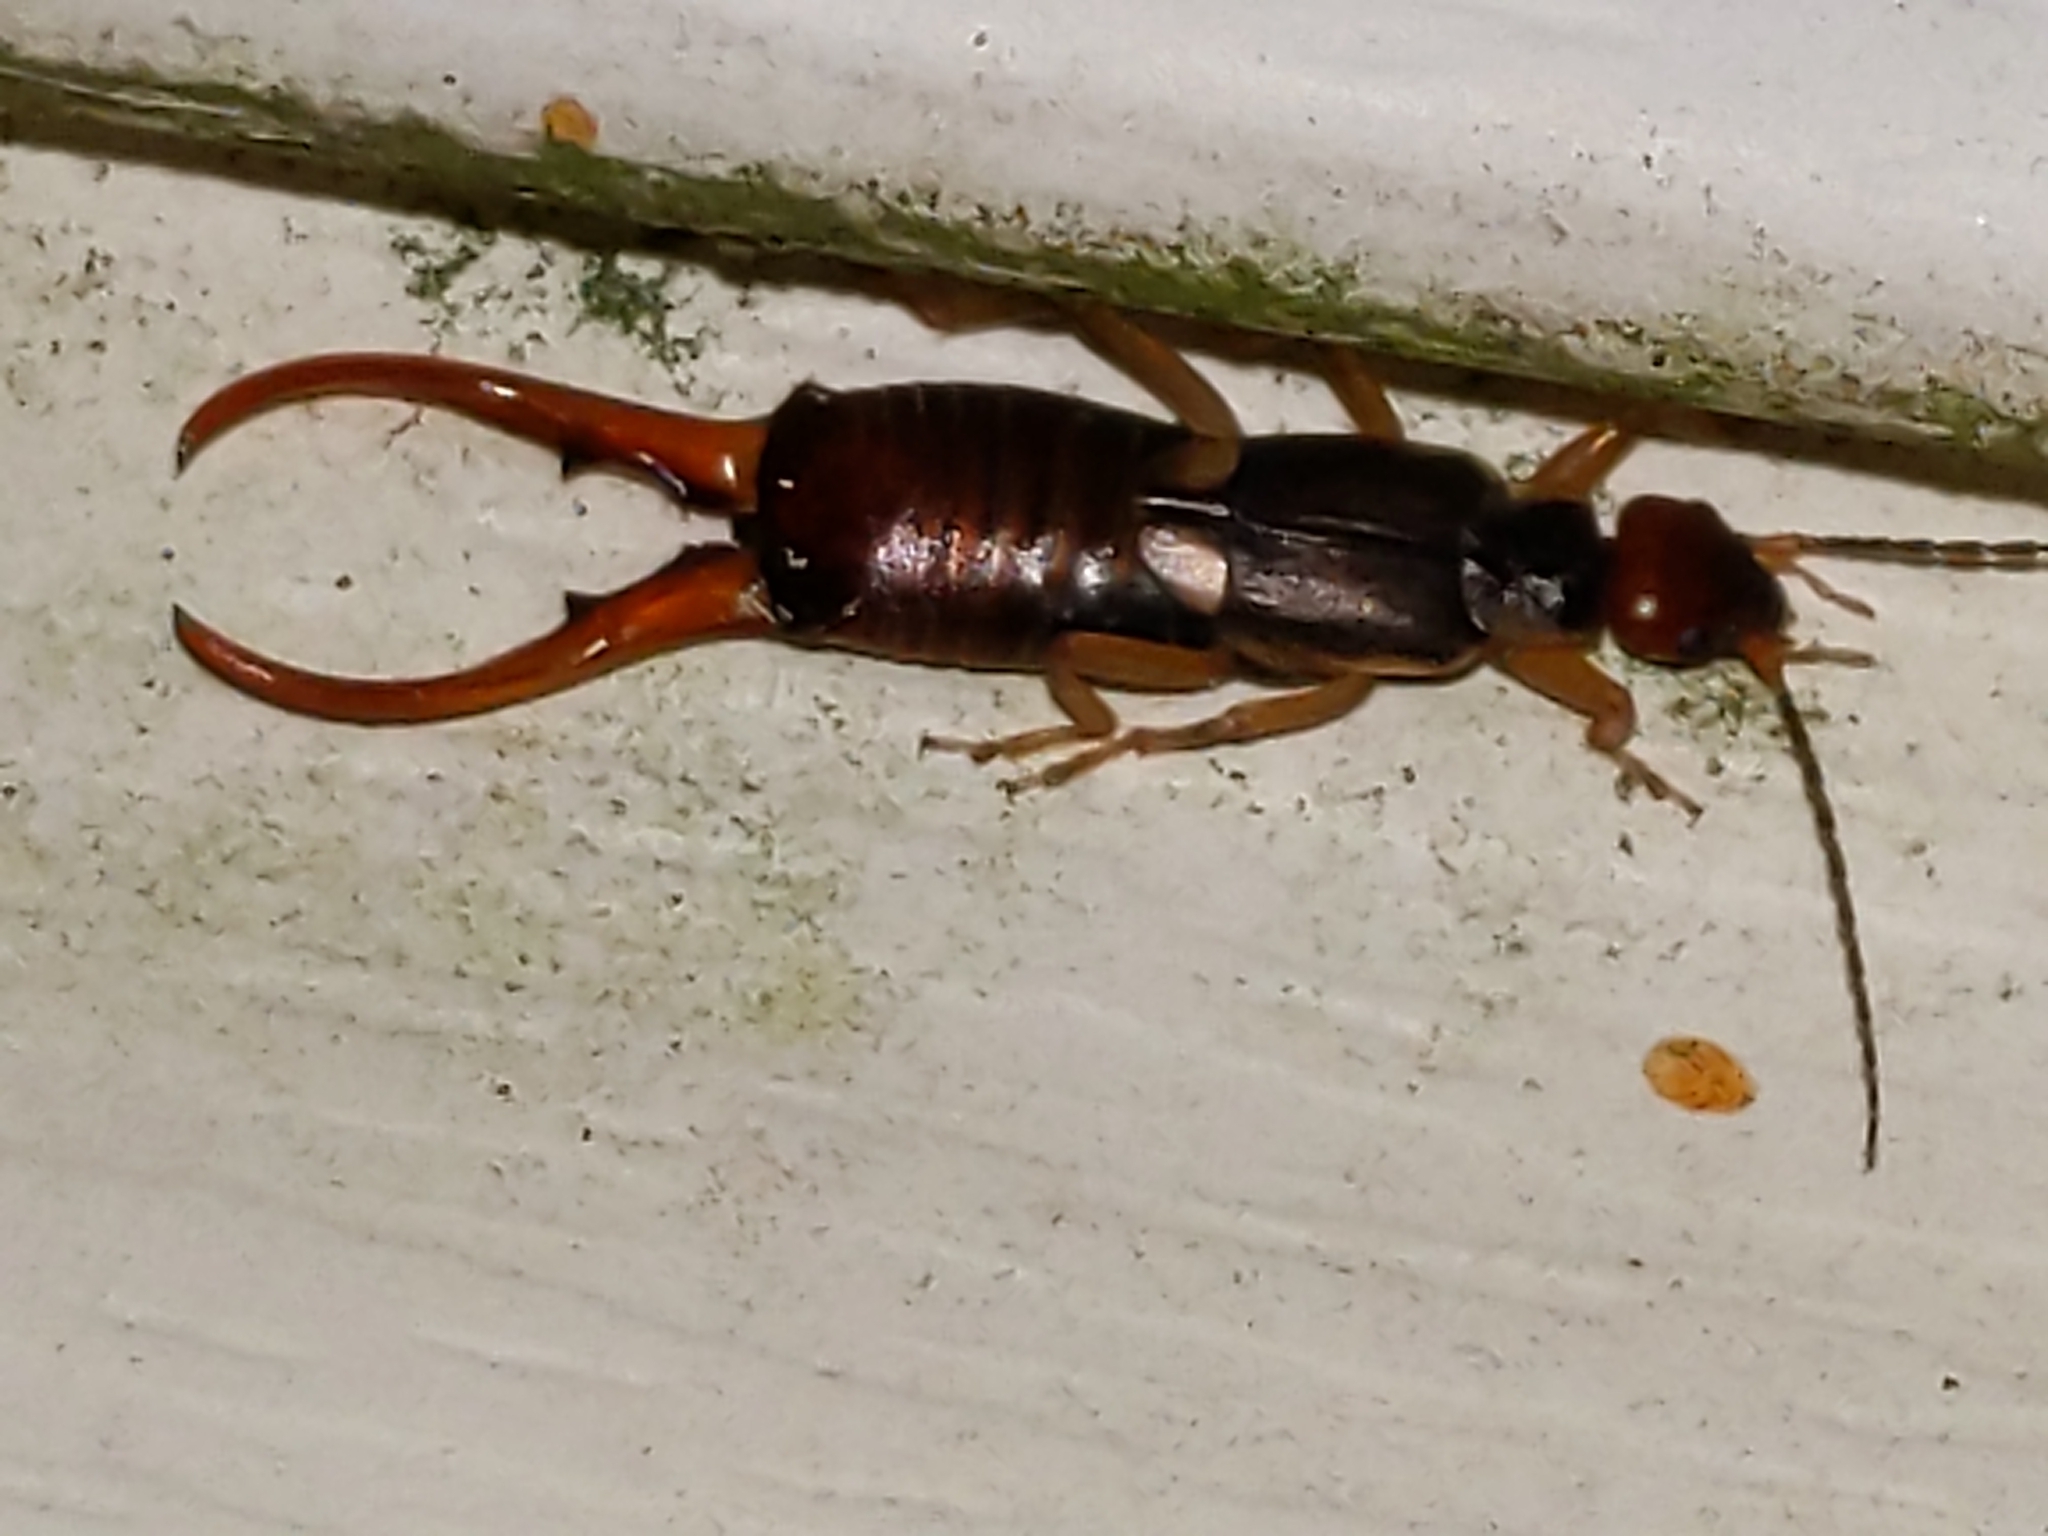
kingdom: Animalia
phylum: Arthropoda
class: Insecta
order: Dermaptera
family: Forficulidae
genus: Forficula
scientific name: Forficula
